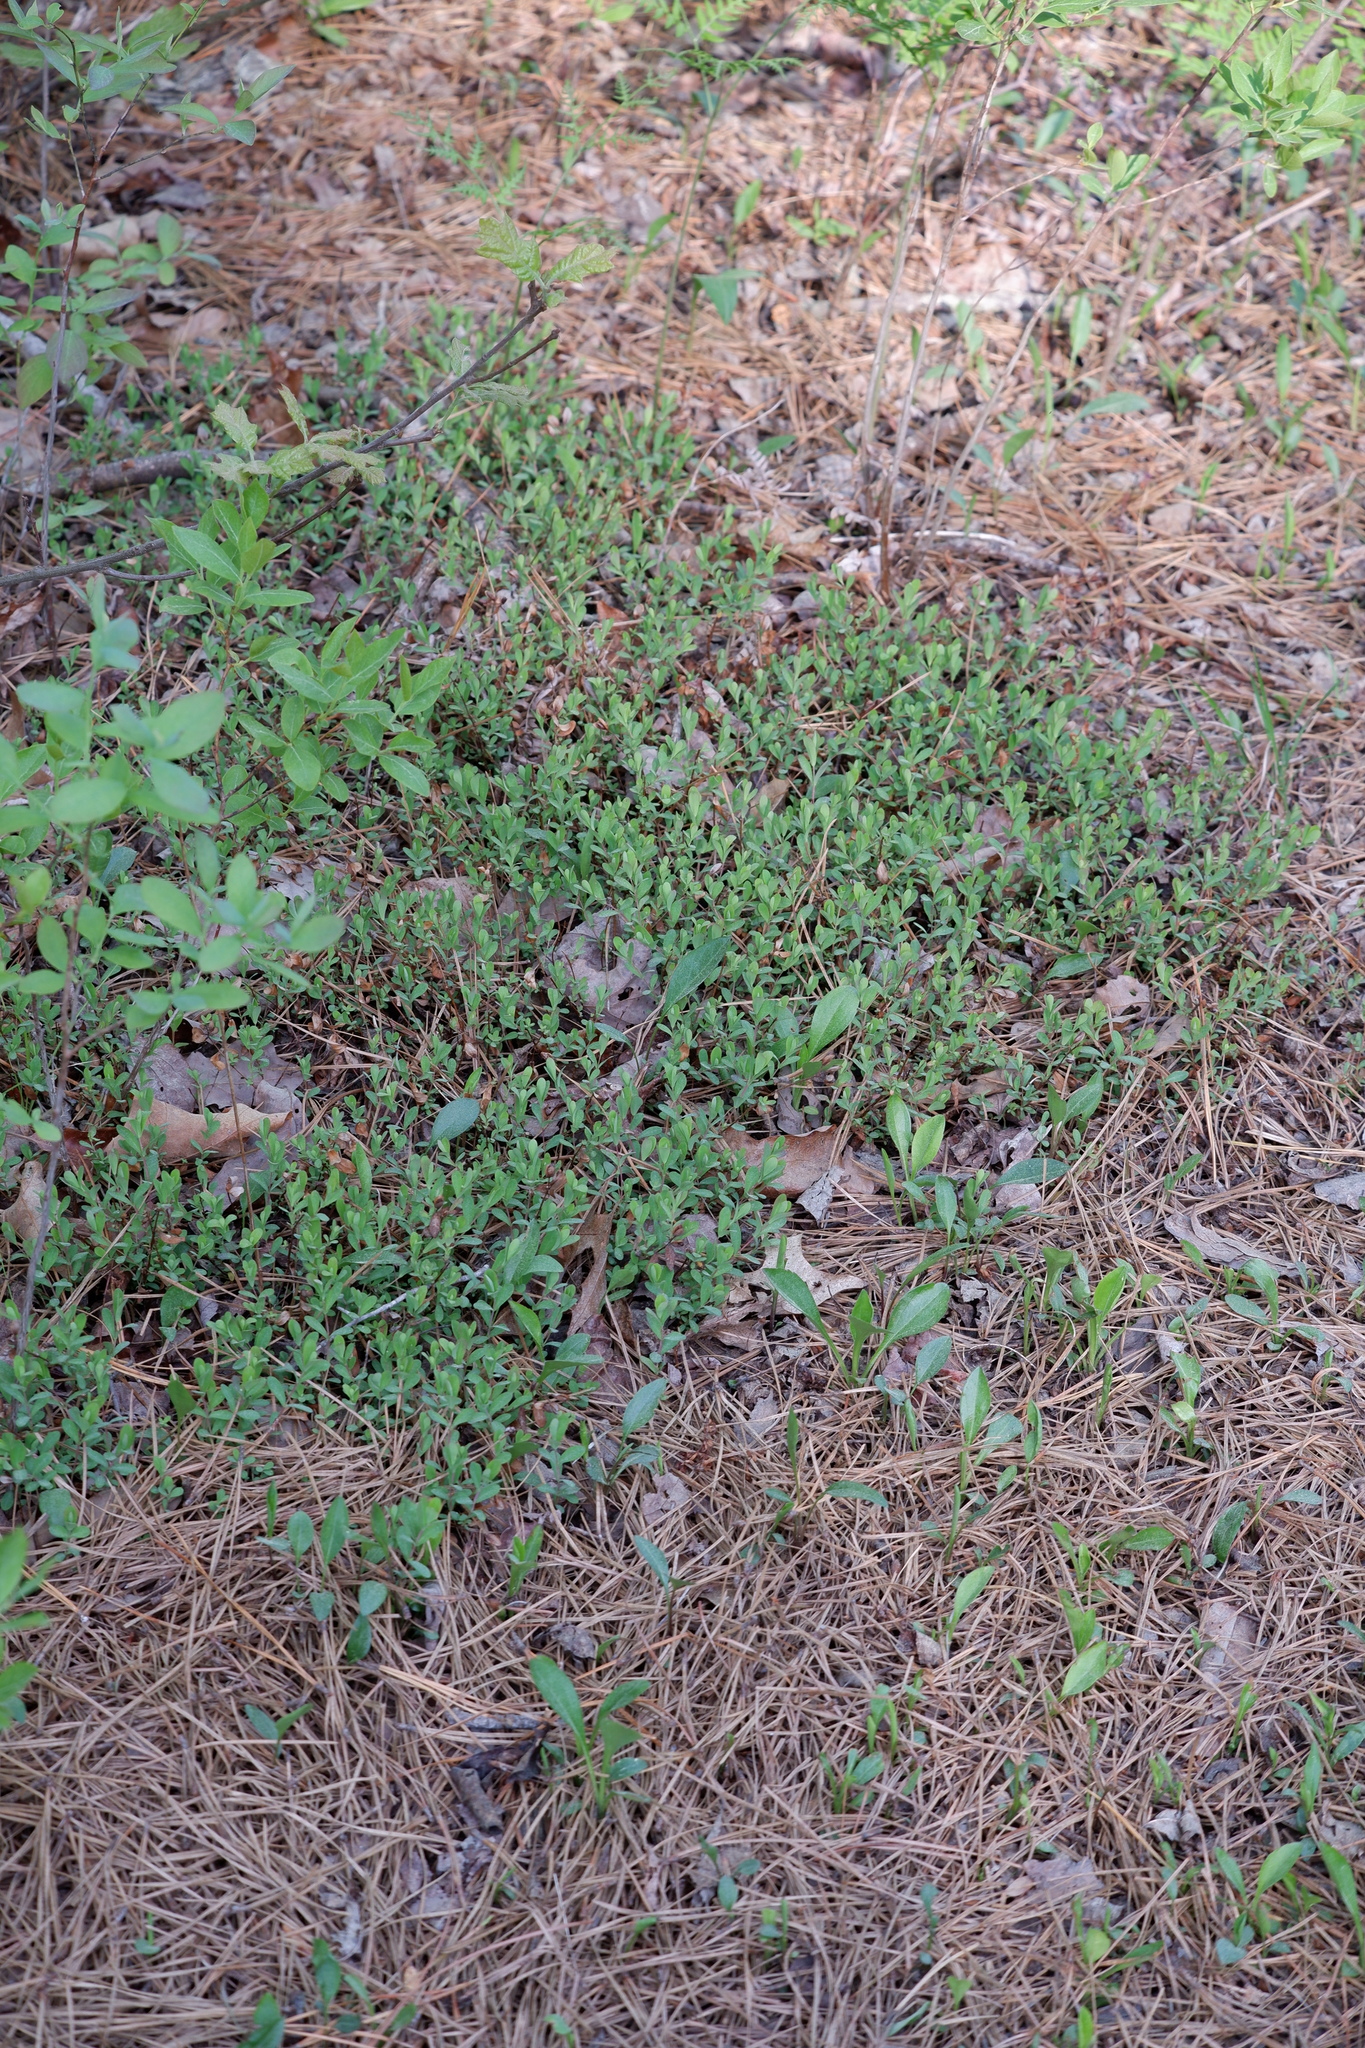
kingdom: Plantae
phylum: Tracheophyta
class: Magnoliopsida
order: Malpighiales
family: Hypericaceae
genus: Hypericum
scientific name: Hypericum hypericoides
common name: St. andrew's cross
